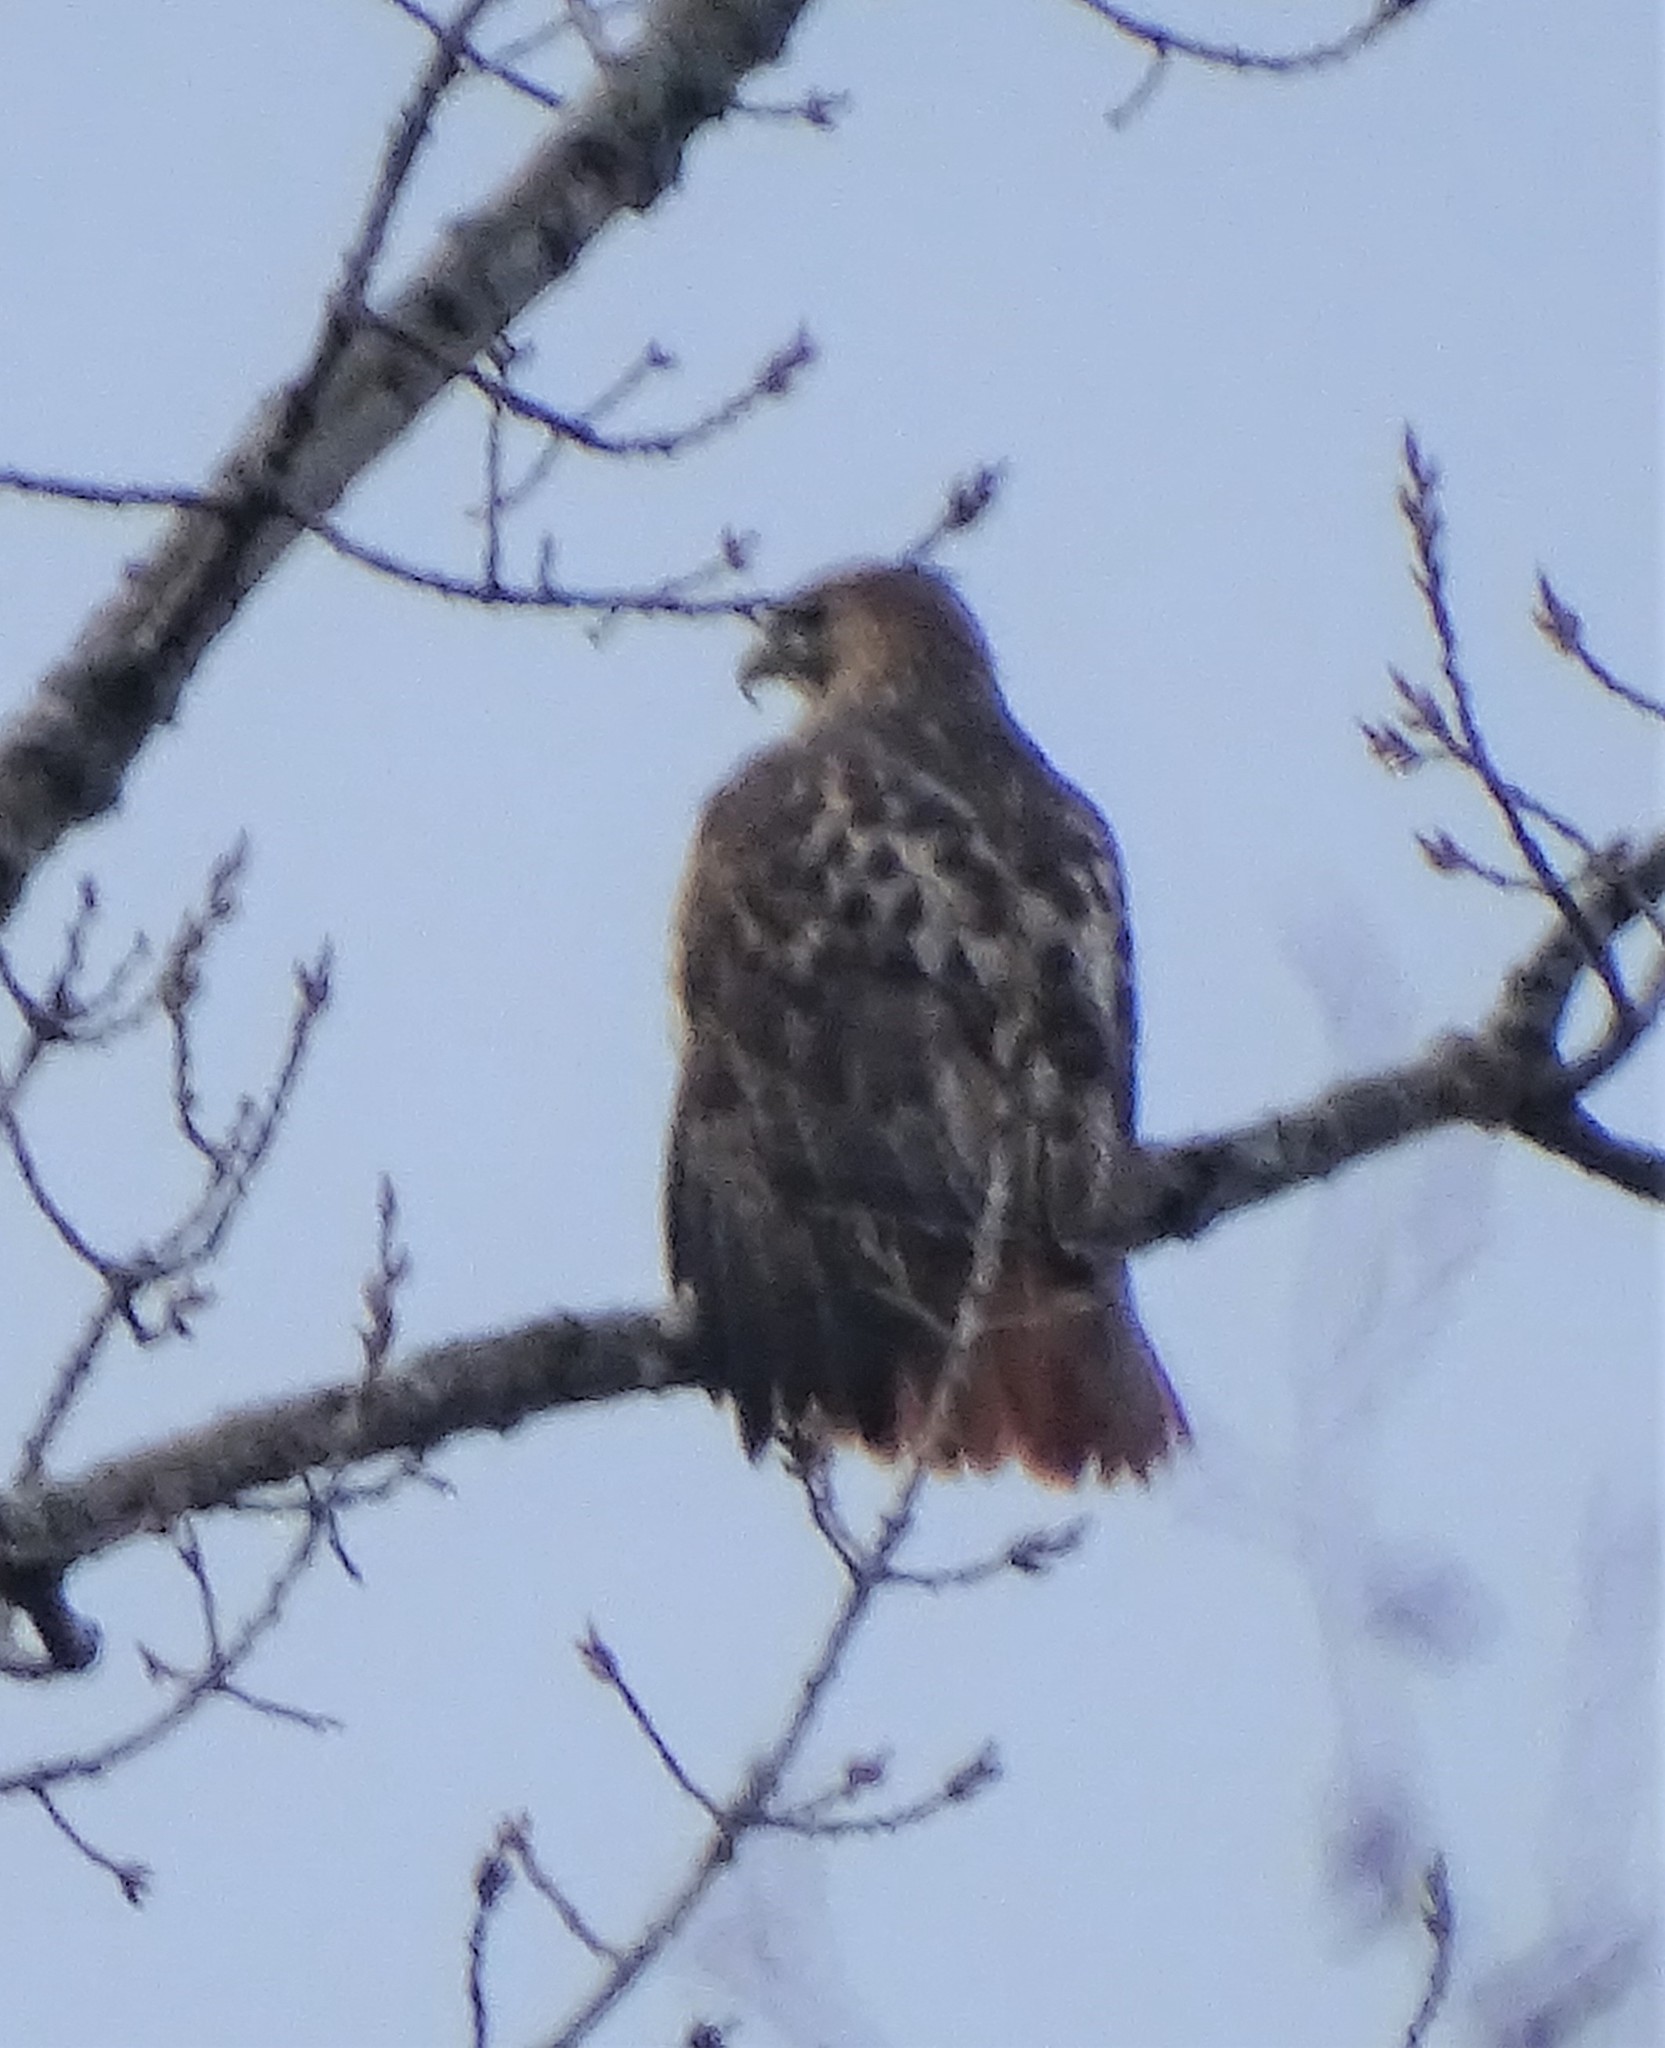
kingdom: Animalia
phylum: Chordata
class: Aves
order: Accipitriformes
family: Accipitridae
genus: Buteo
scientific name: Buteo jamaicensis
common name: Red-tailed hawk
